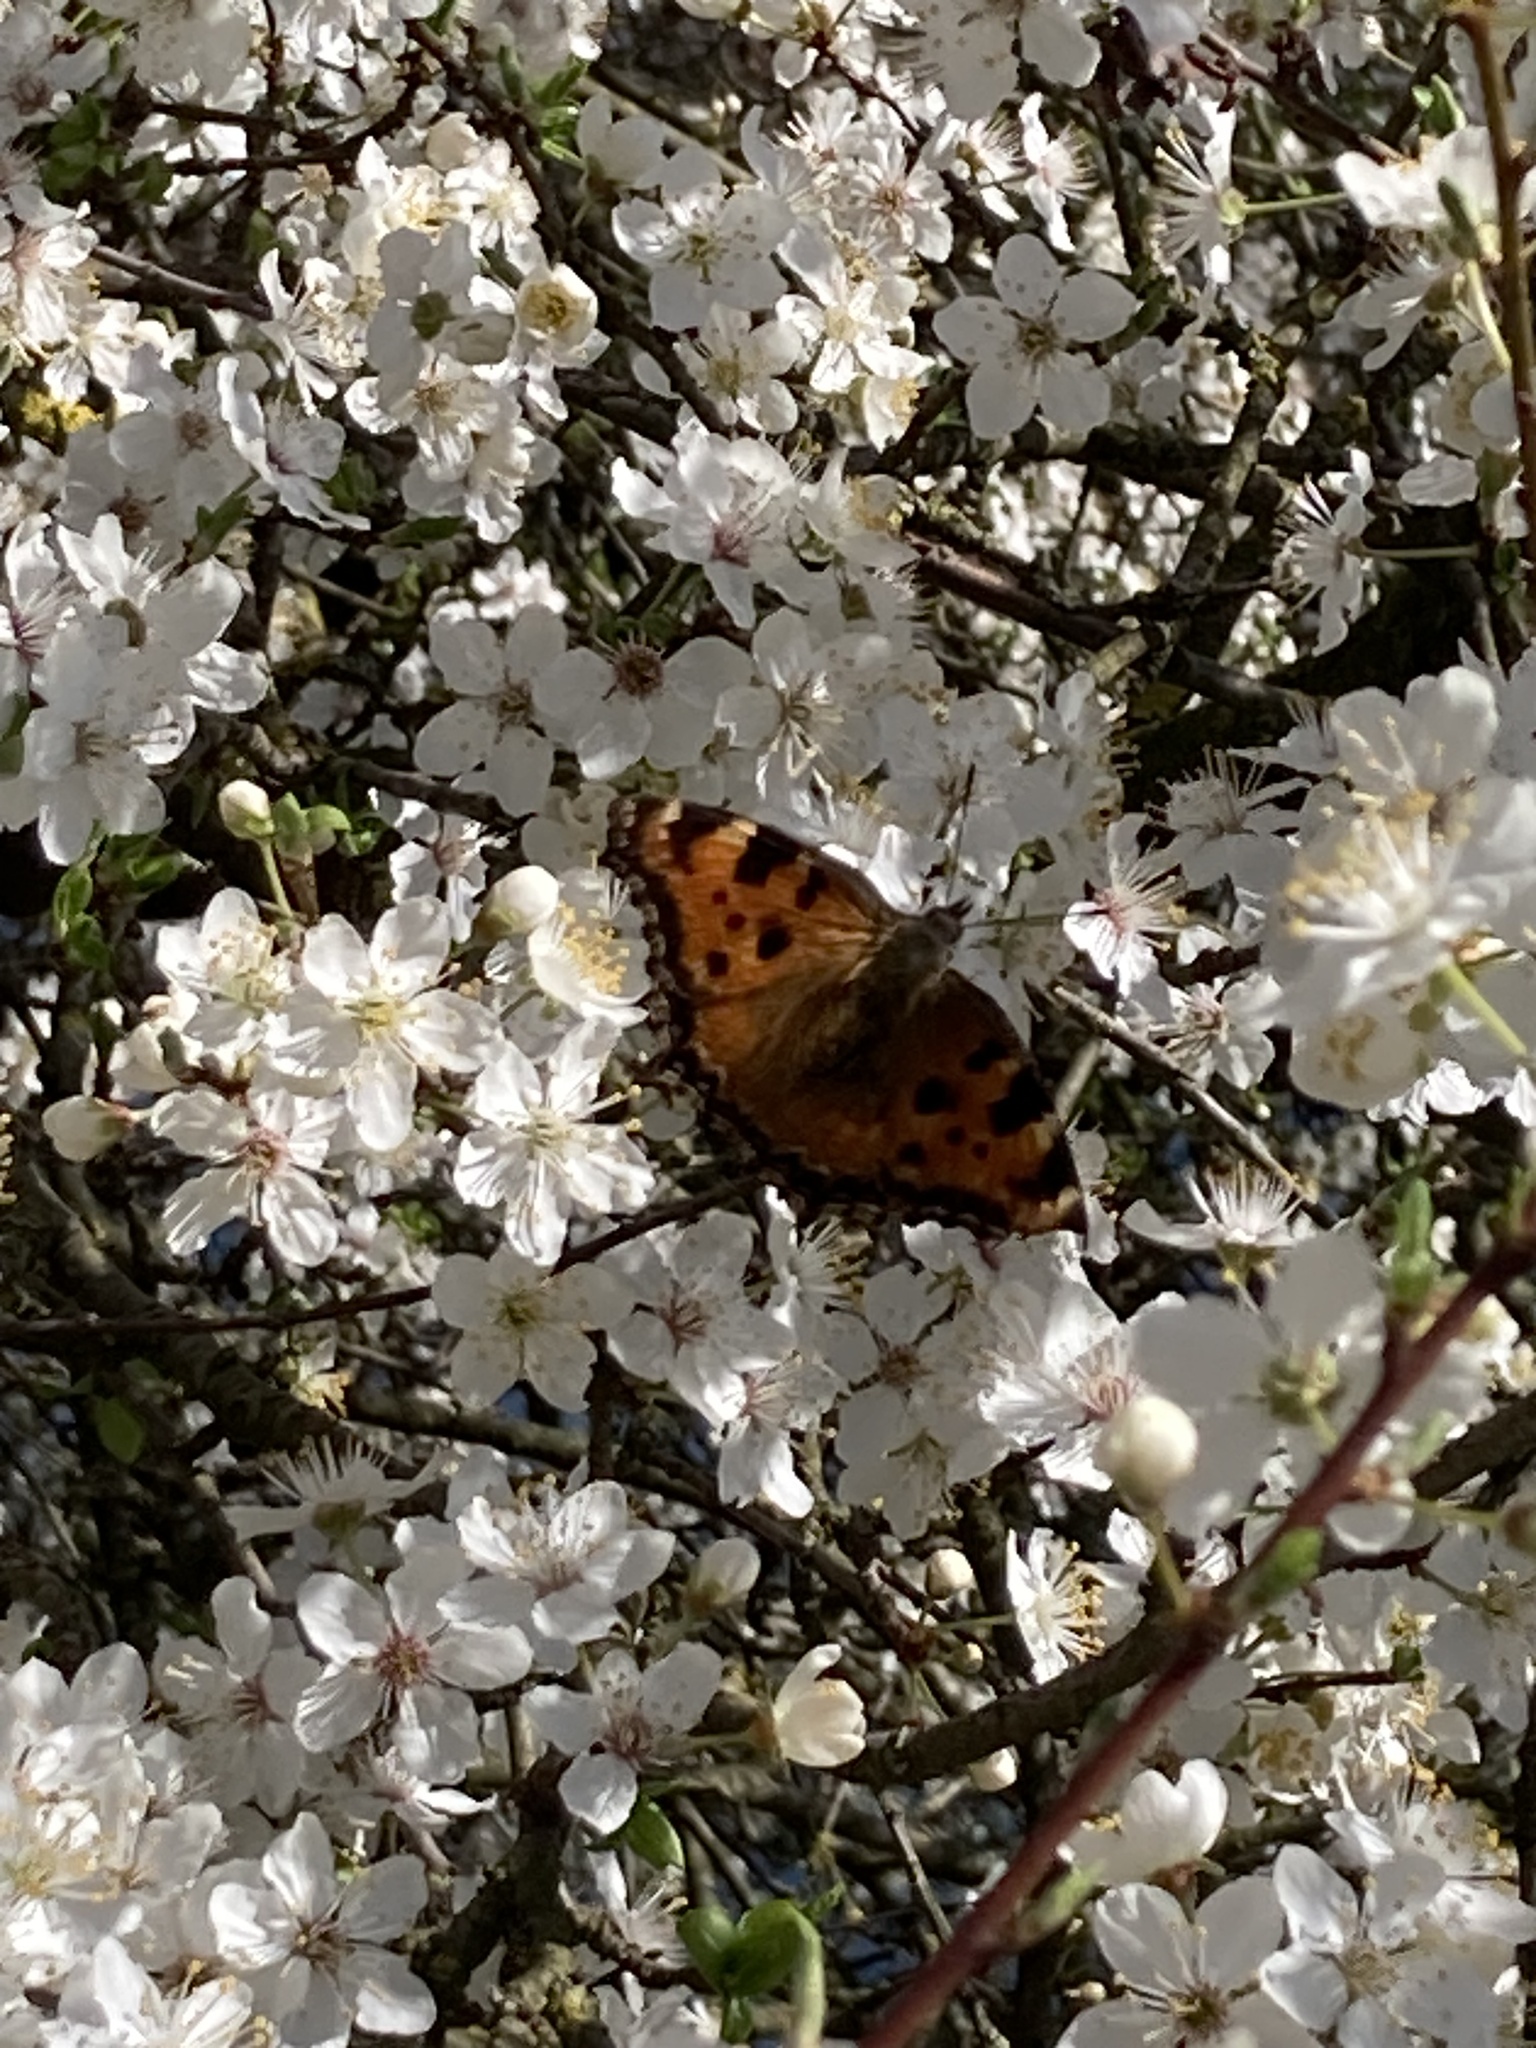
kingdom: Animalia
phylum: Arthropoda
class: Insecta
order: Lepidoptera
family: Nymphalidae
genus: Nymphalis
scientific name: Nymphalis polychloros
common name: Large tortoiseshell
